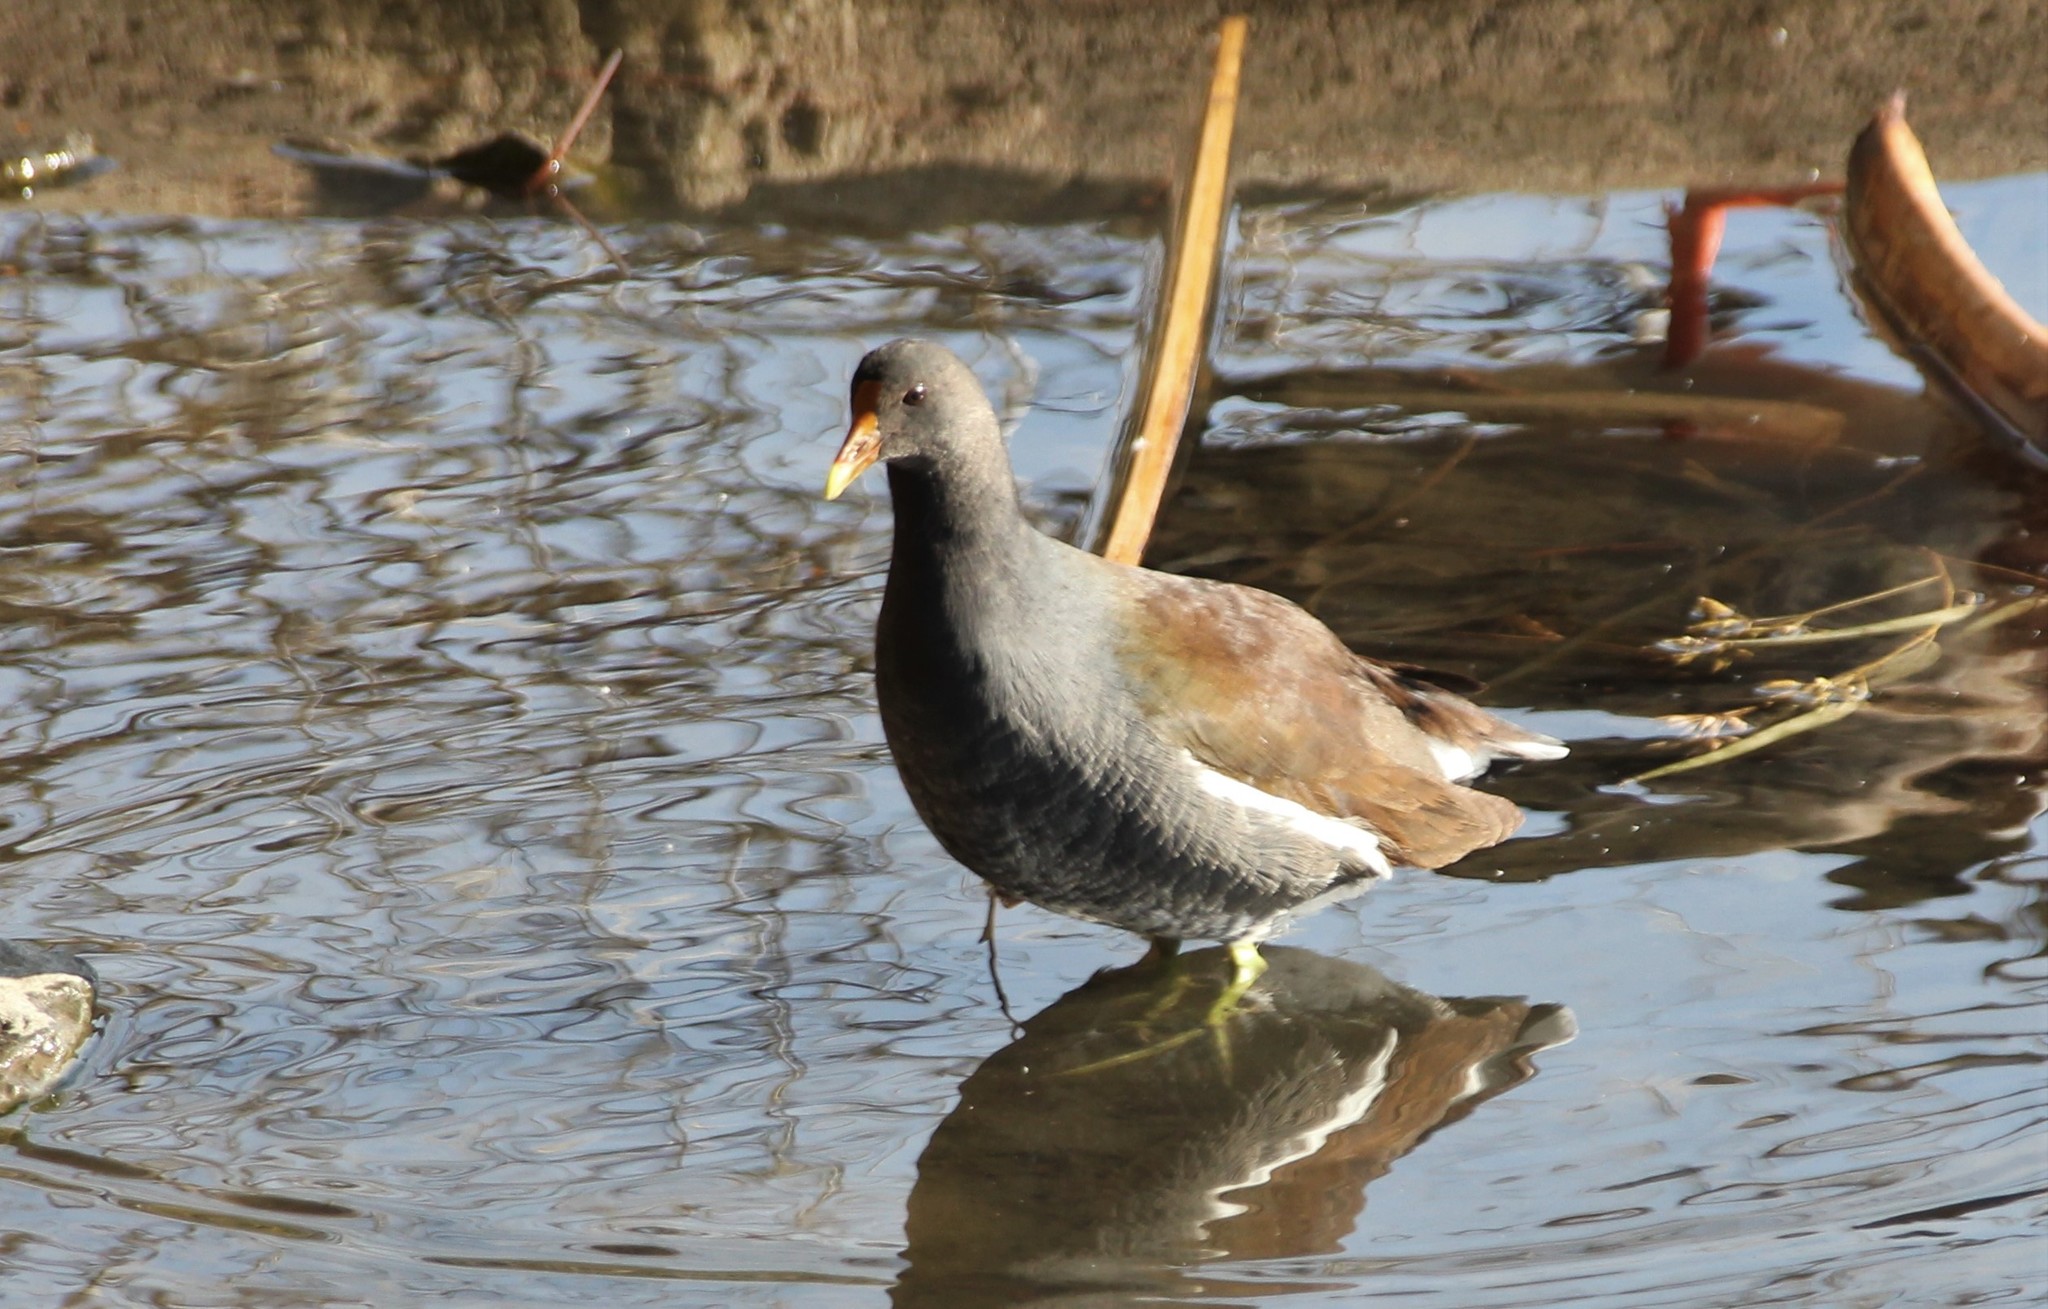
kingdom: Animalia
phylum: Chordata
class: Aves
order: Gruiformes
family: Rallidae
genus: Gallinula
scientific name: Gallinula chloropus
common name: Common moorhen
